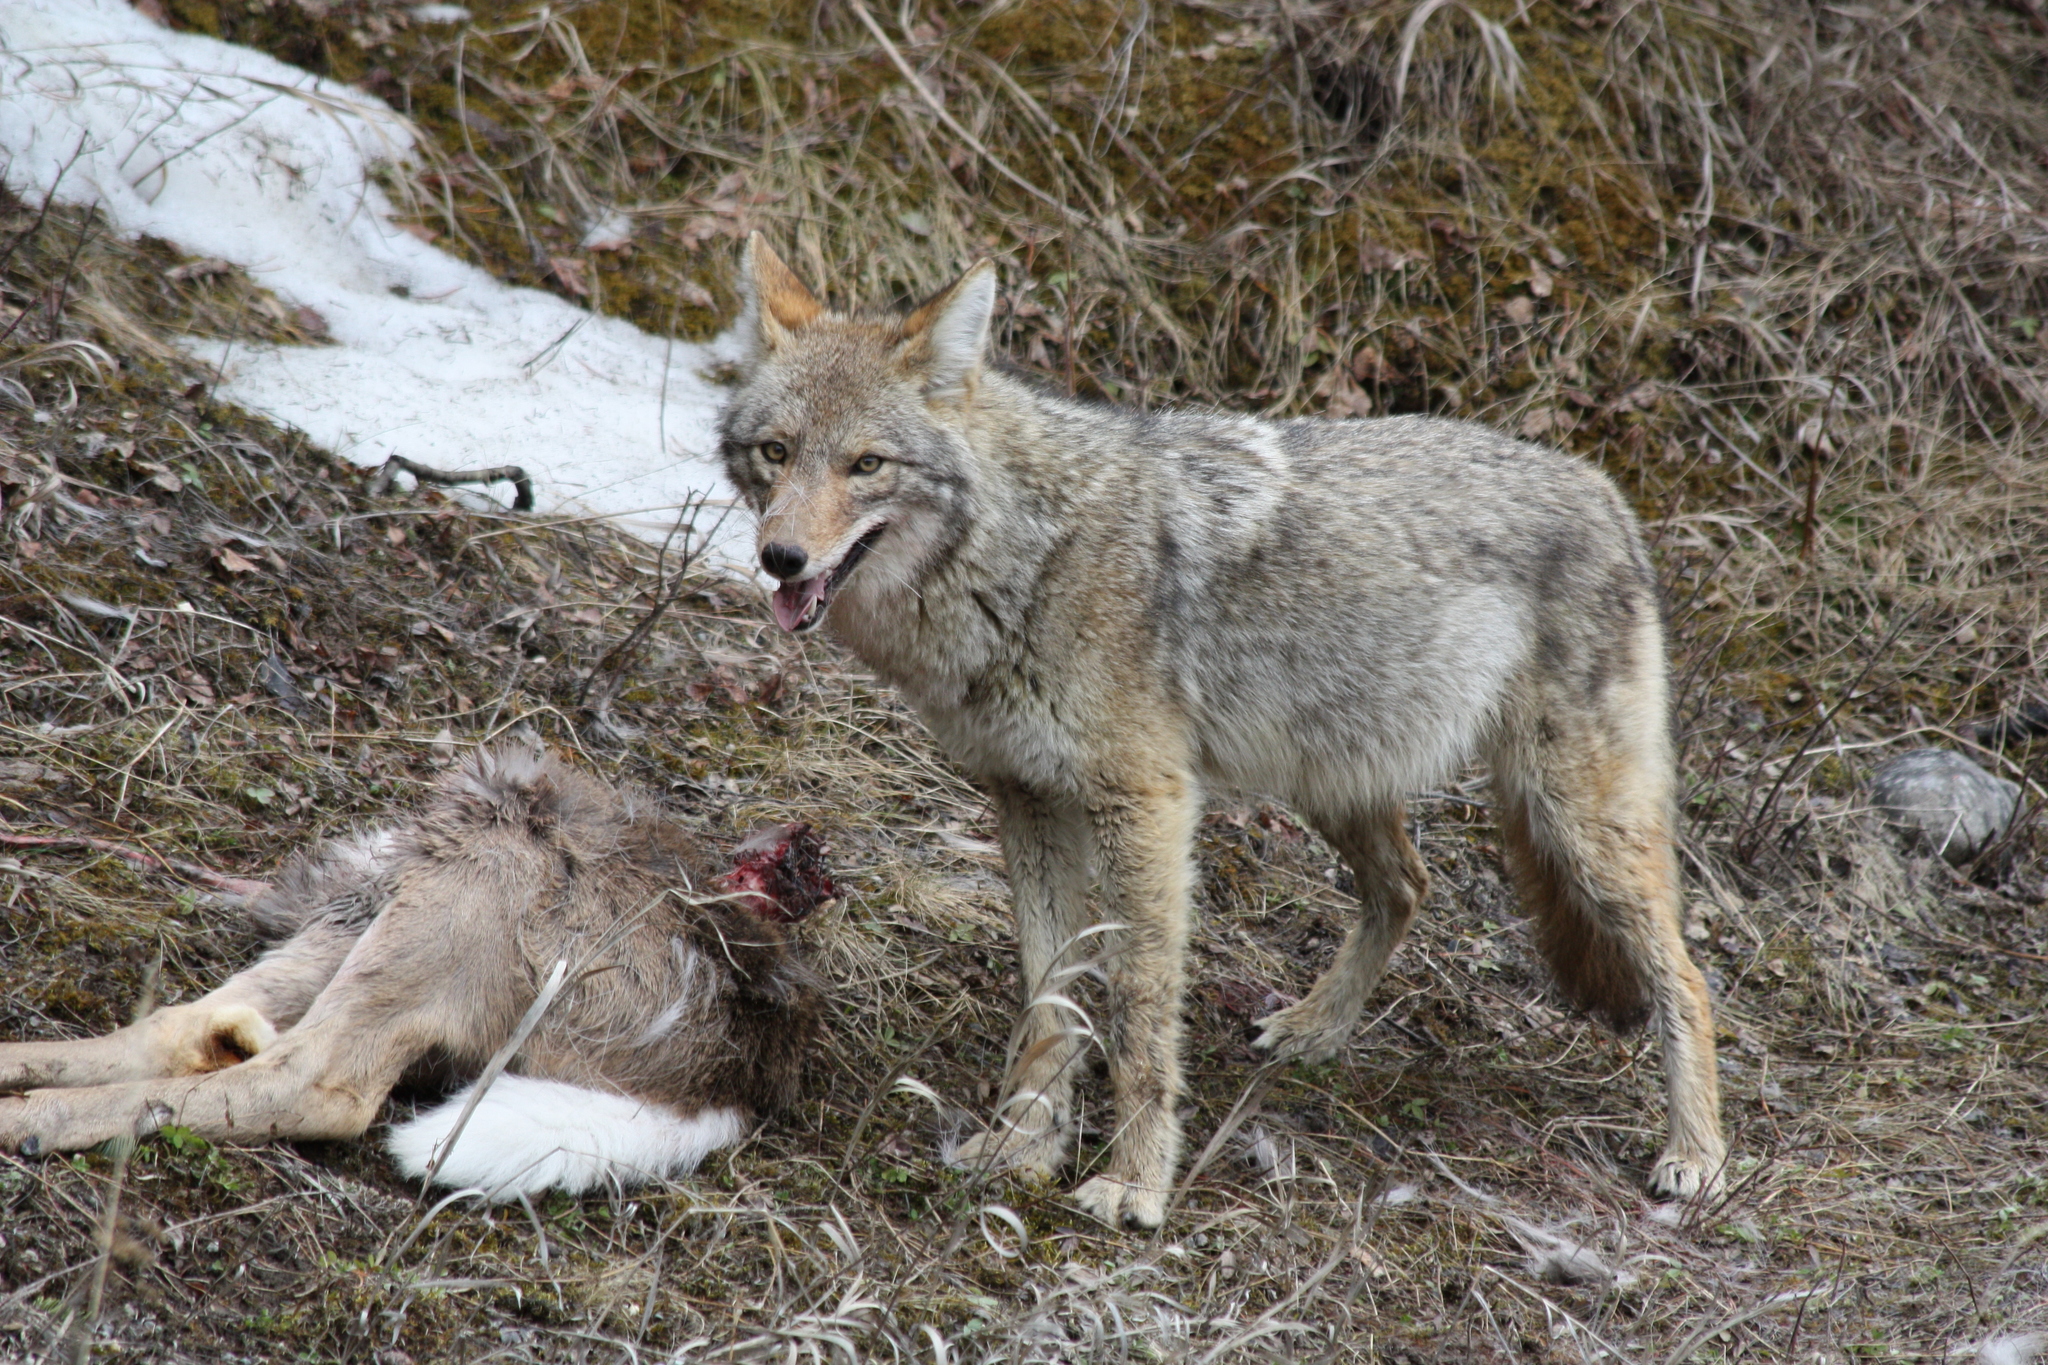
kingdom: Animalia
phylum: Chordata
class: Mammalia
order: Carnivora
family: Canidae
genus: Canis
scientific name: Canis latrans
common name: Coyote
